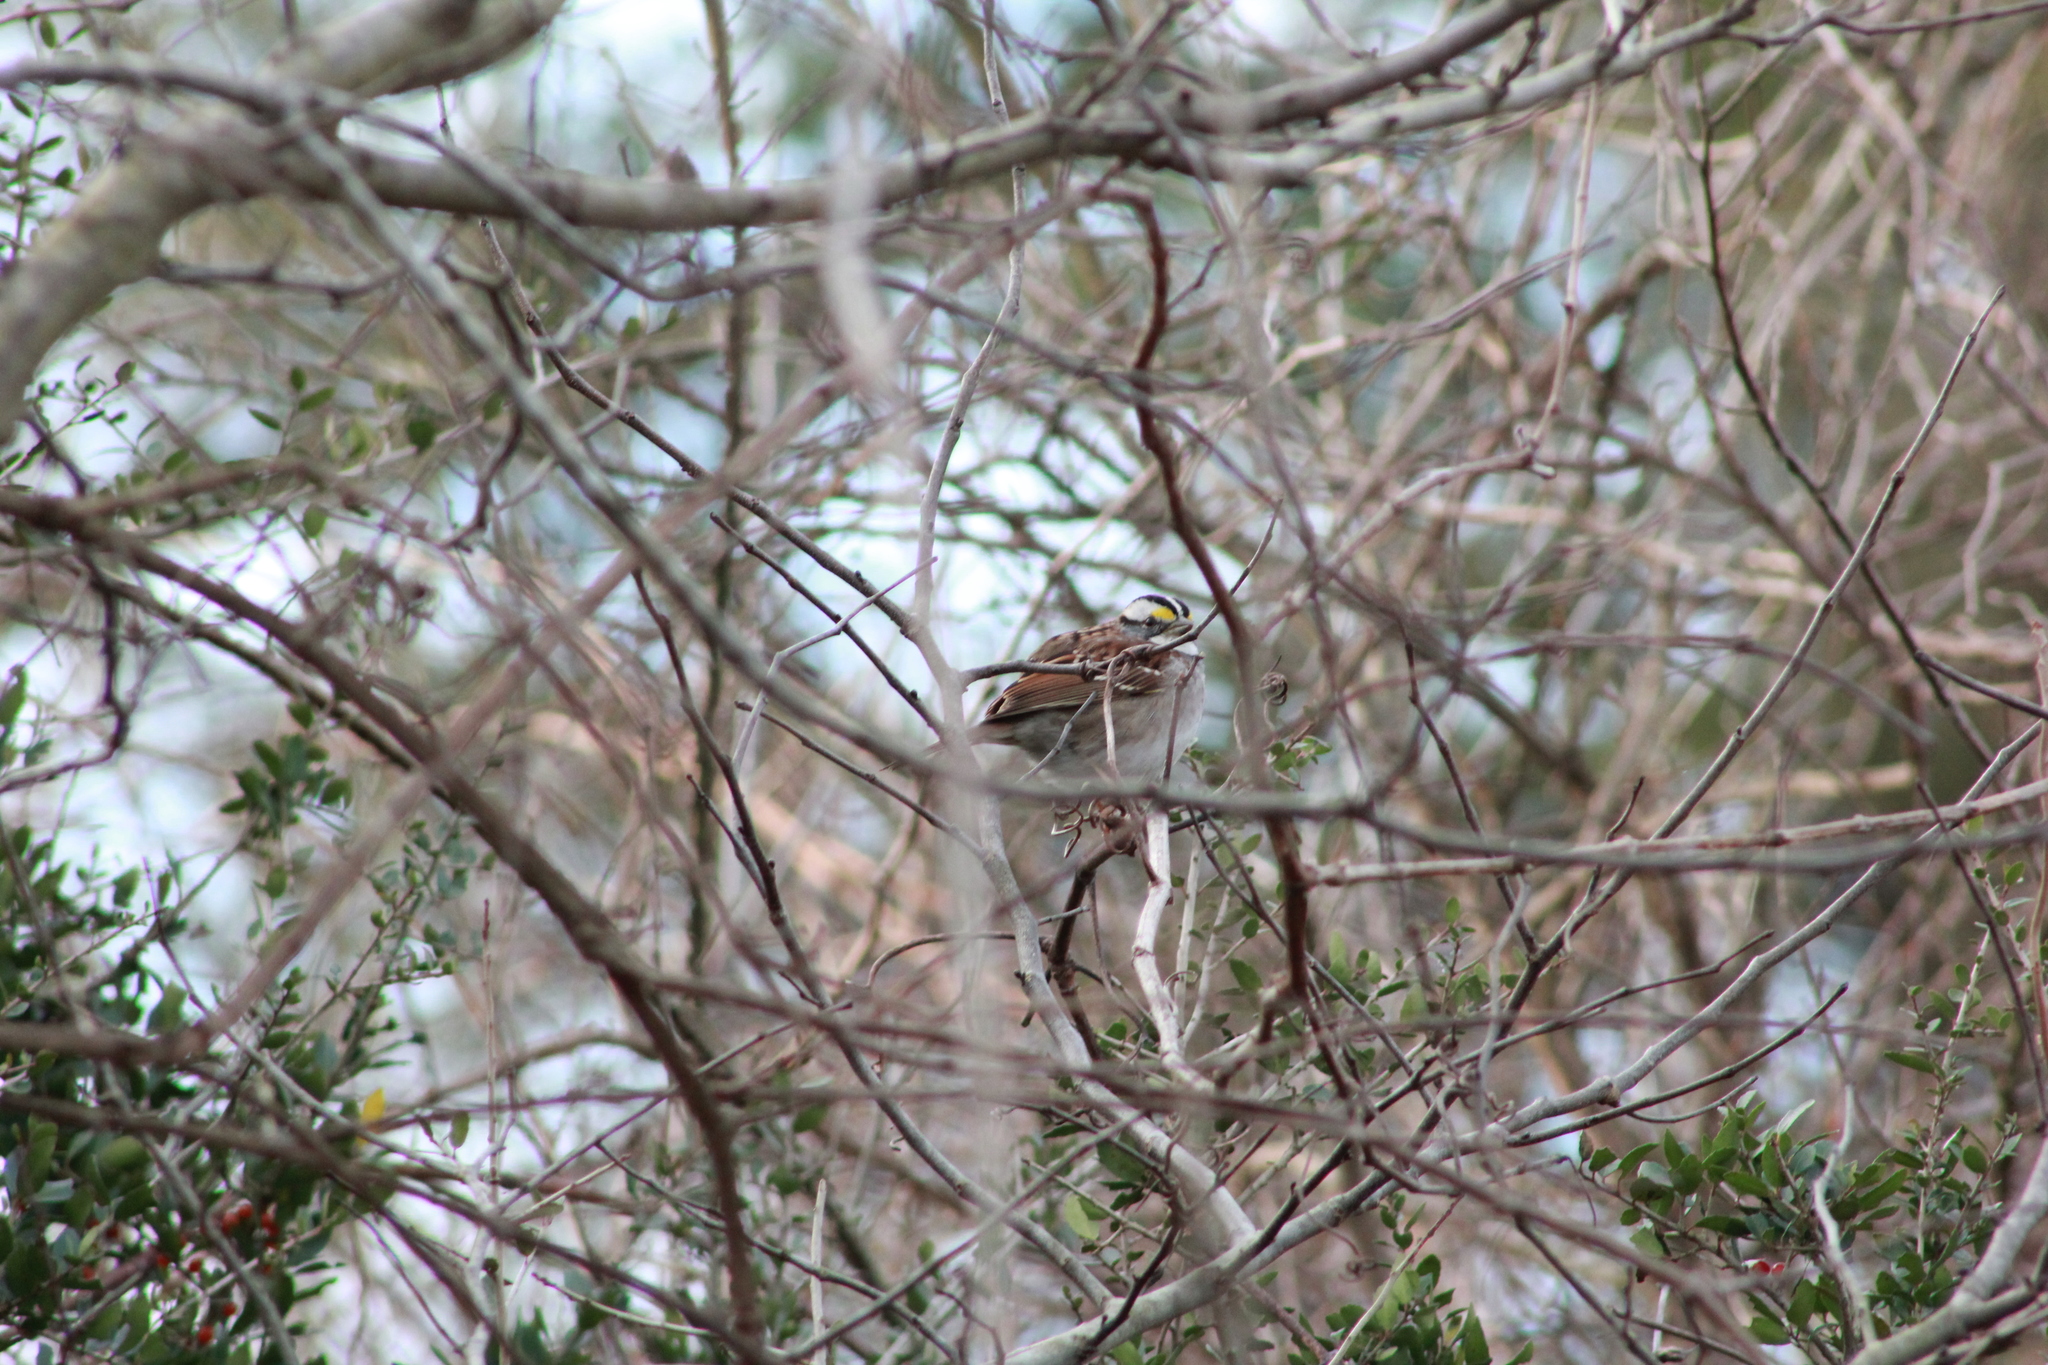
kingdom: Animalia
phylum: Chordata
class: Aves
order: Passeriformes
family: Passerellidae
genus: Zonotrichia
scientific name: Zonotrichia albicollis
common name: White-throated sparrow
